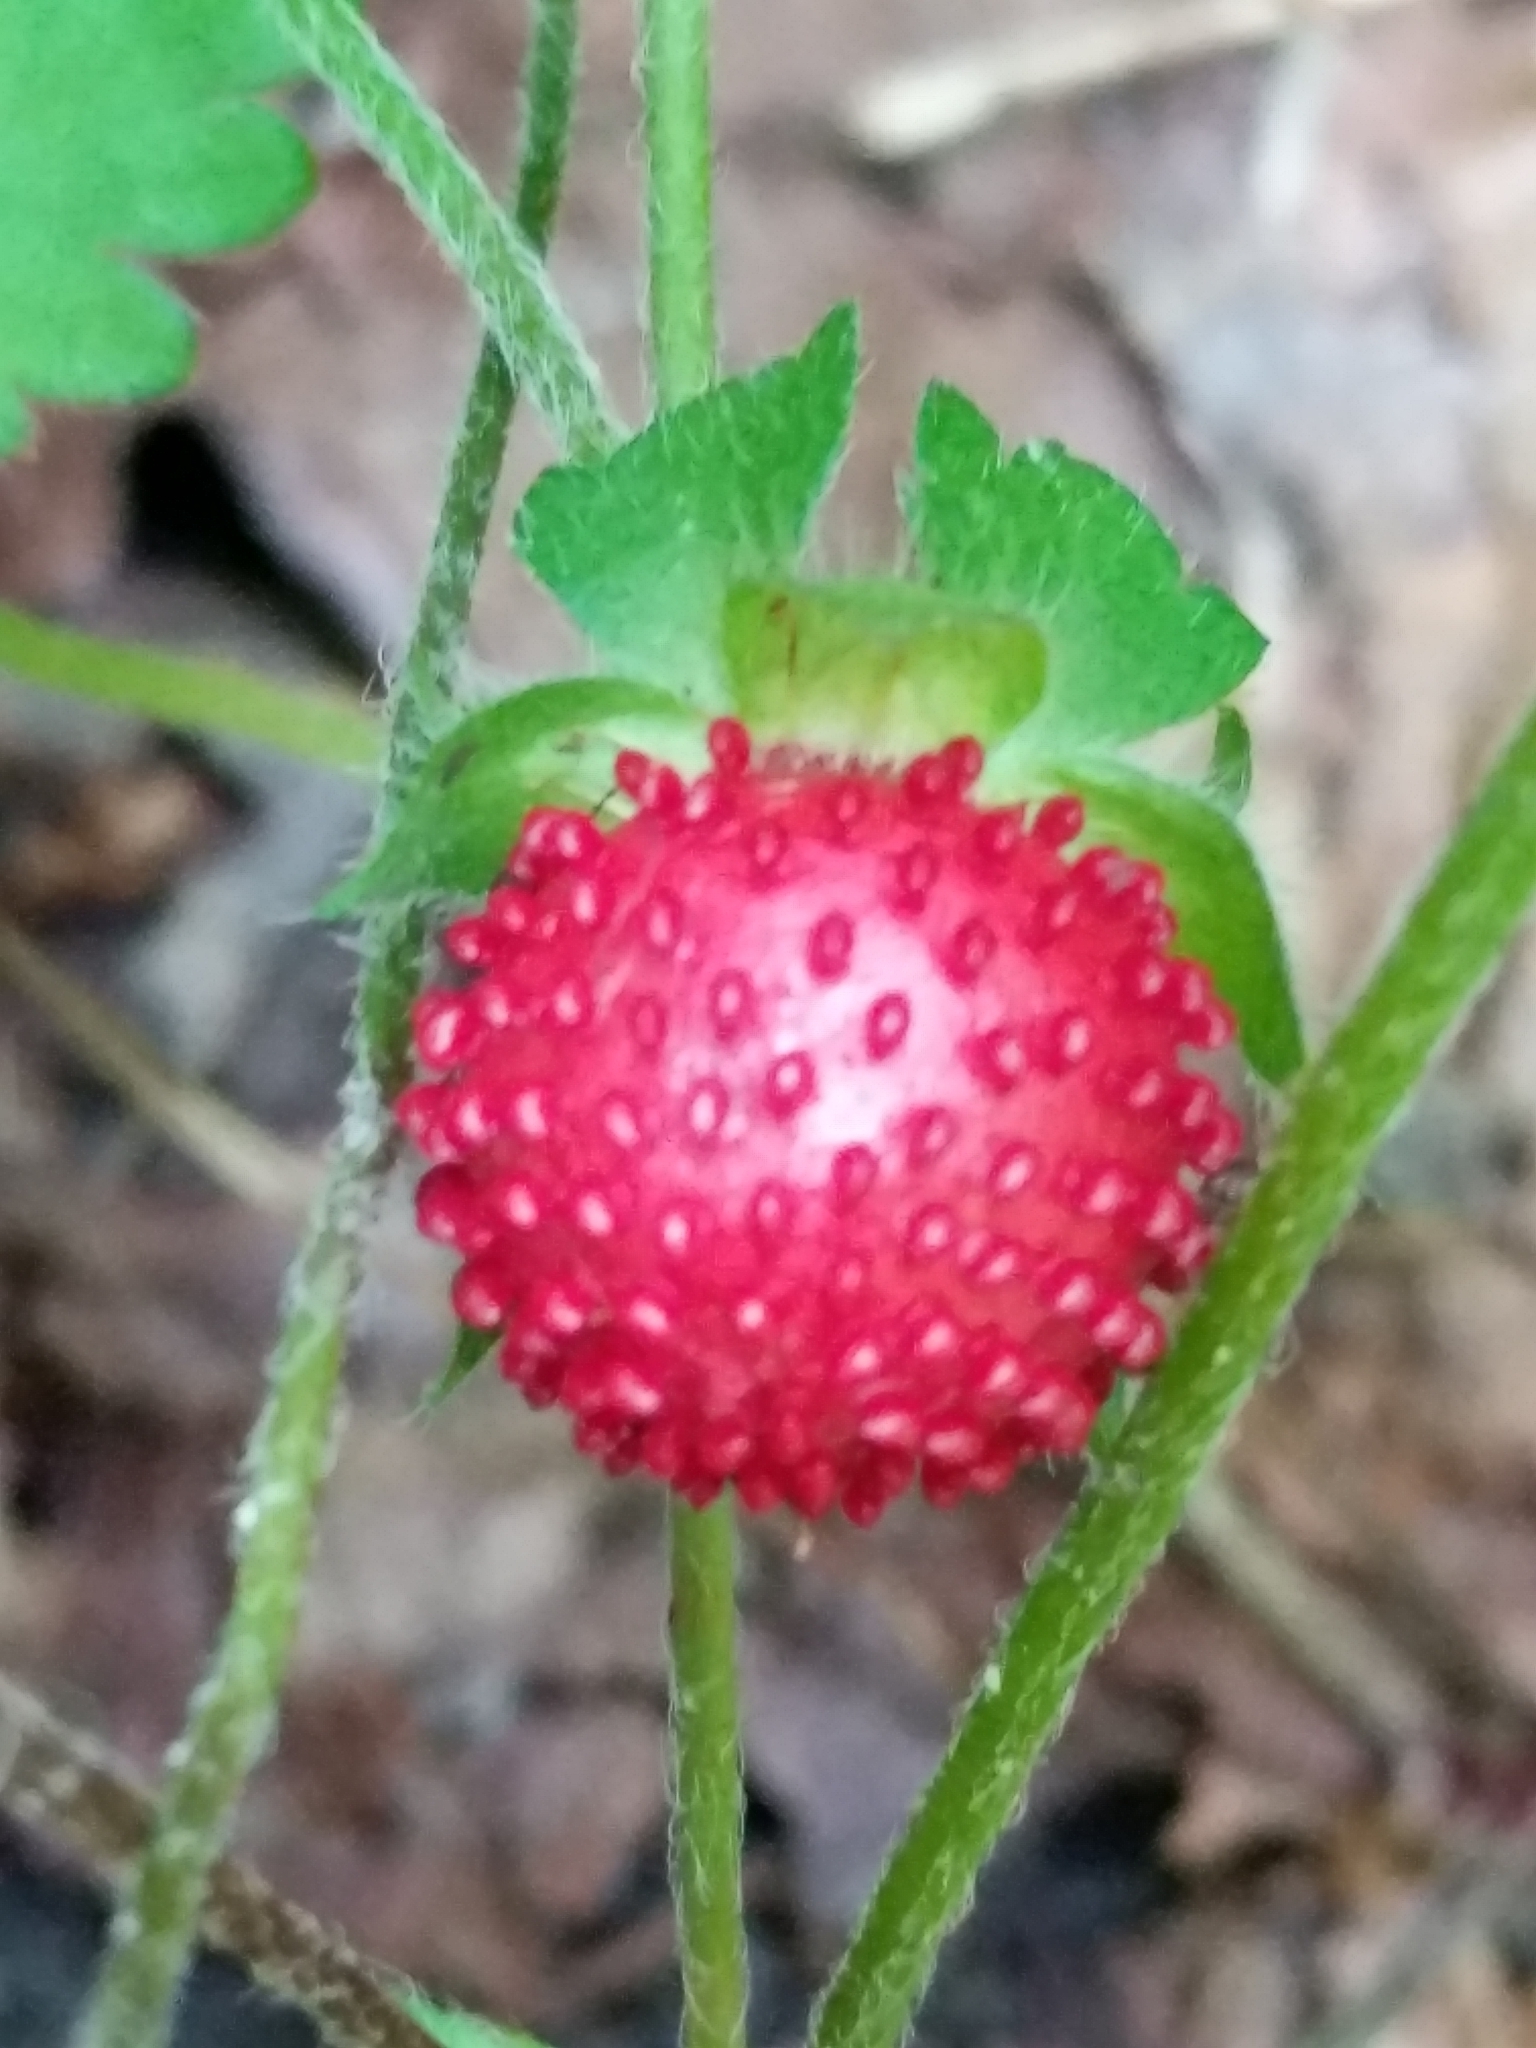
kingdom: Plantae
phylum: Tracheophyta
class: Magnoliopsida
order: Rosales
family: Rosaceae
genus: Potentilla
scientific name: Potentilla indica
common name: Yellow-flowered strawberry
